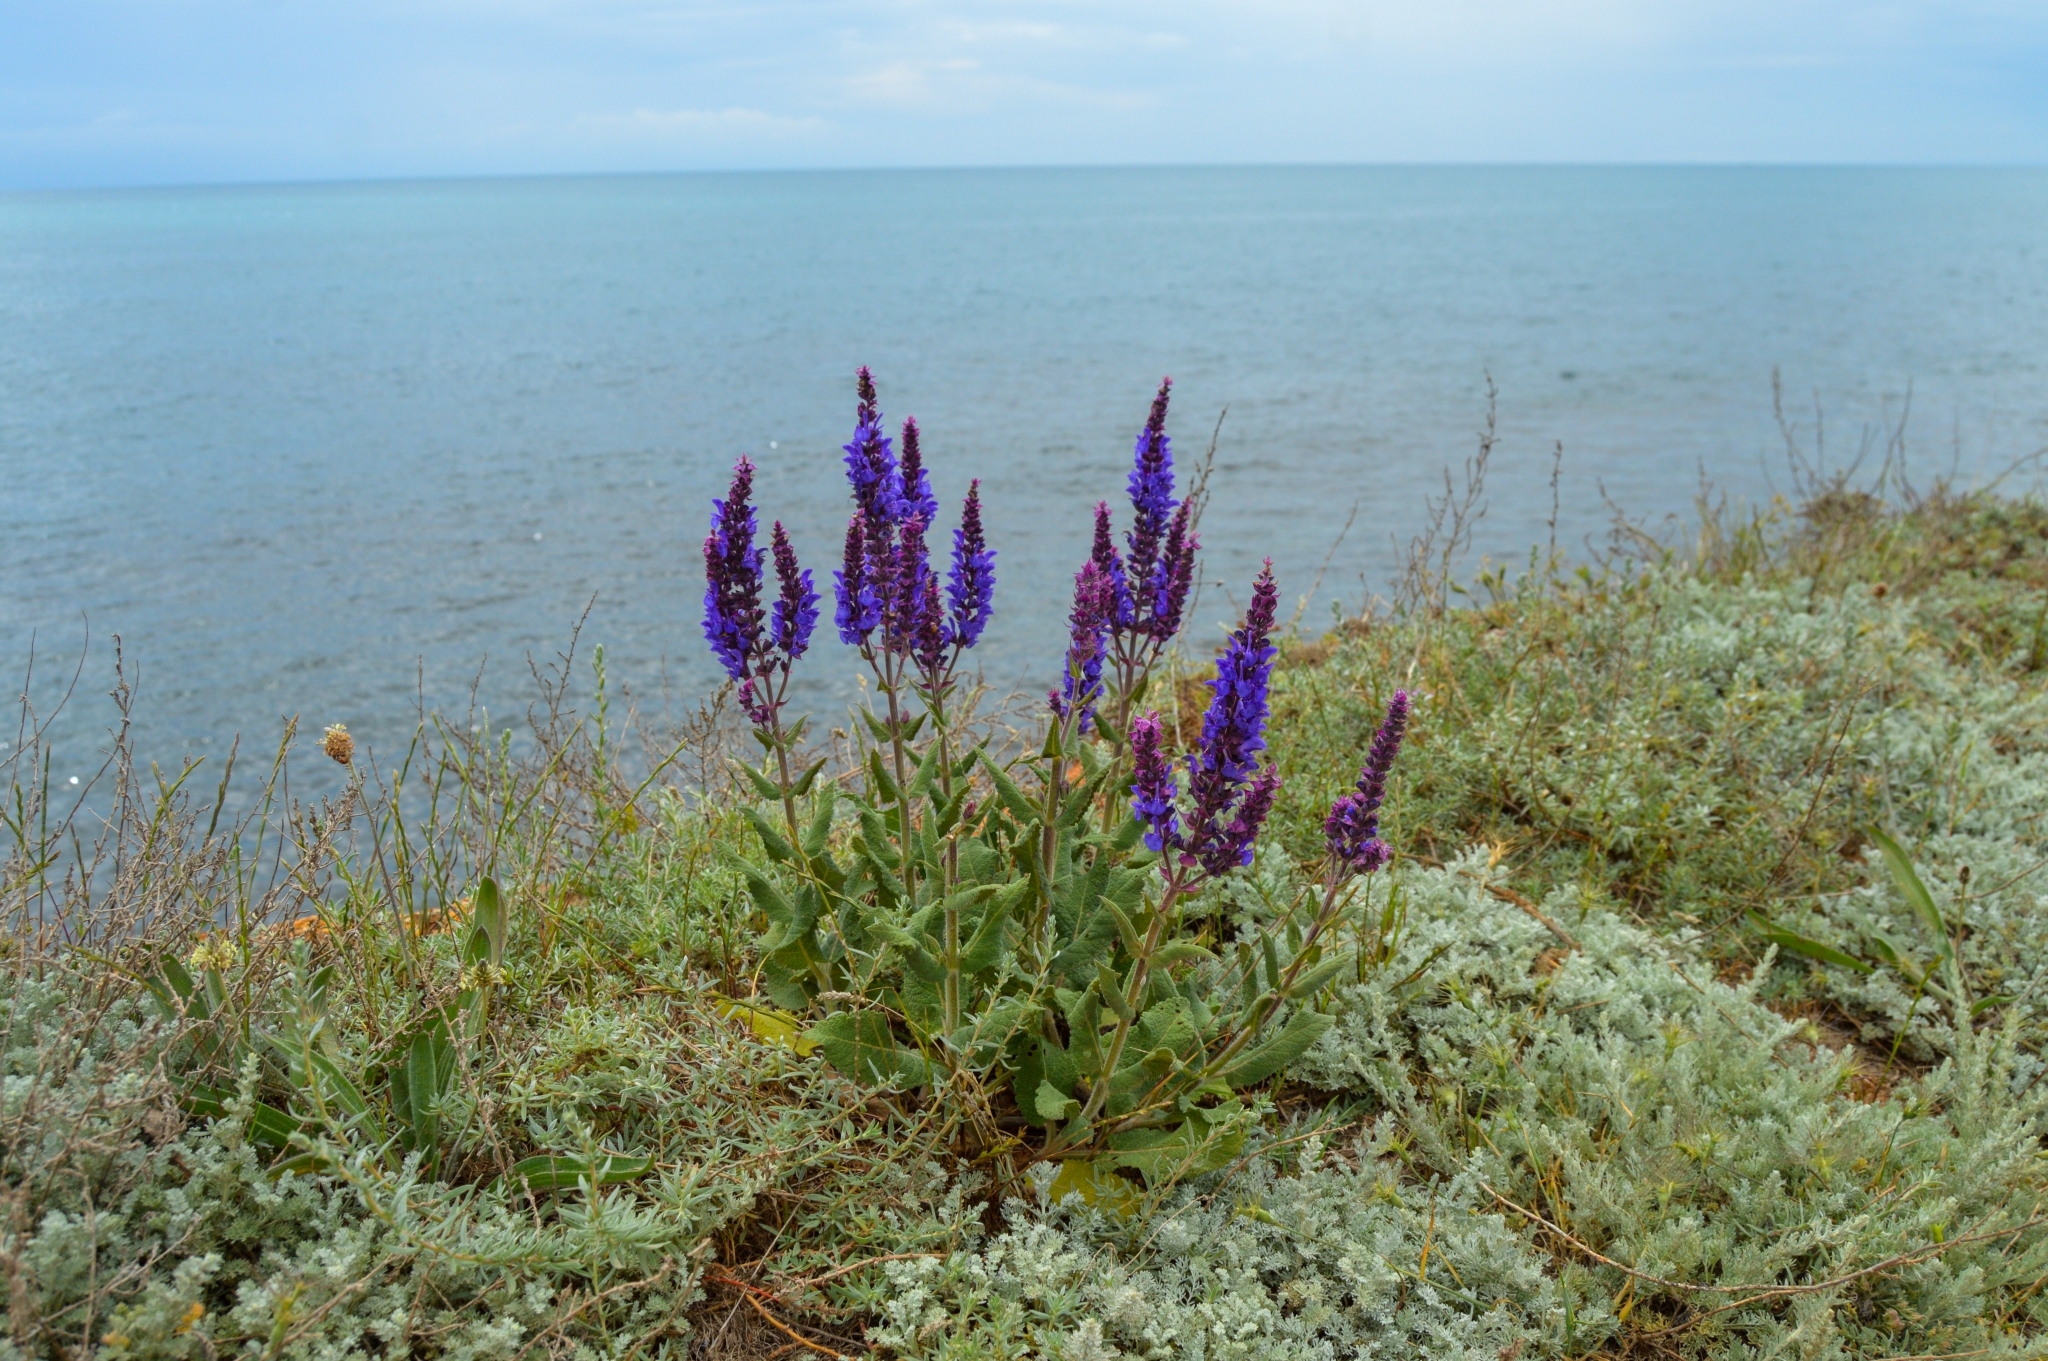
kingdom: Plantae
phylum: Tracheophyta
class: Magnoliopsida
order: Lamiales
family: Lamiaceae
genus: Salvia
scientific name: Salvia nemorosa
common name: Balkan clary
